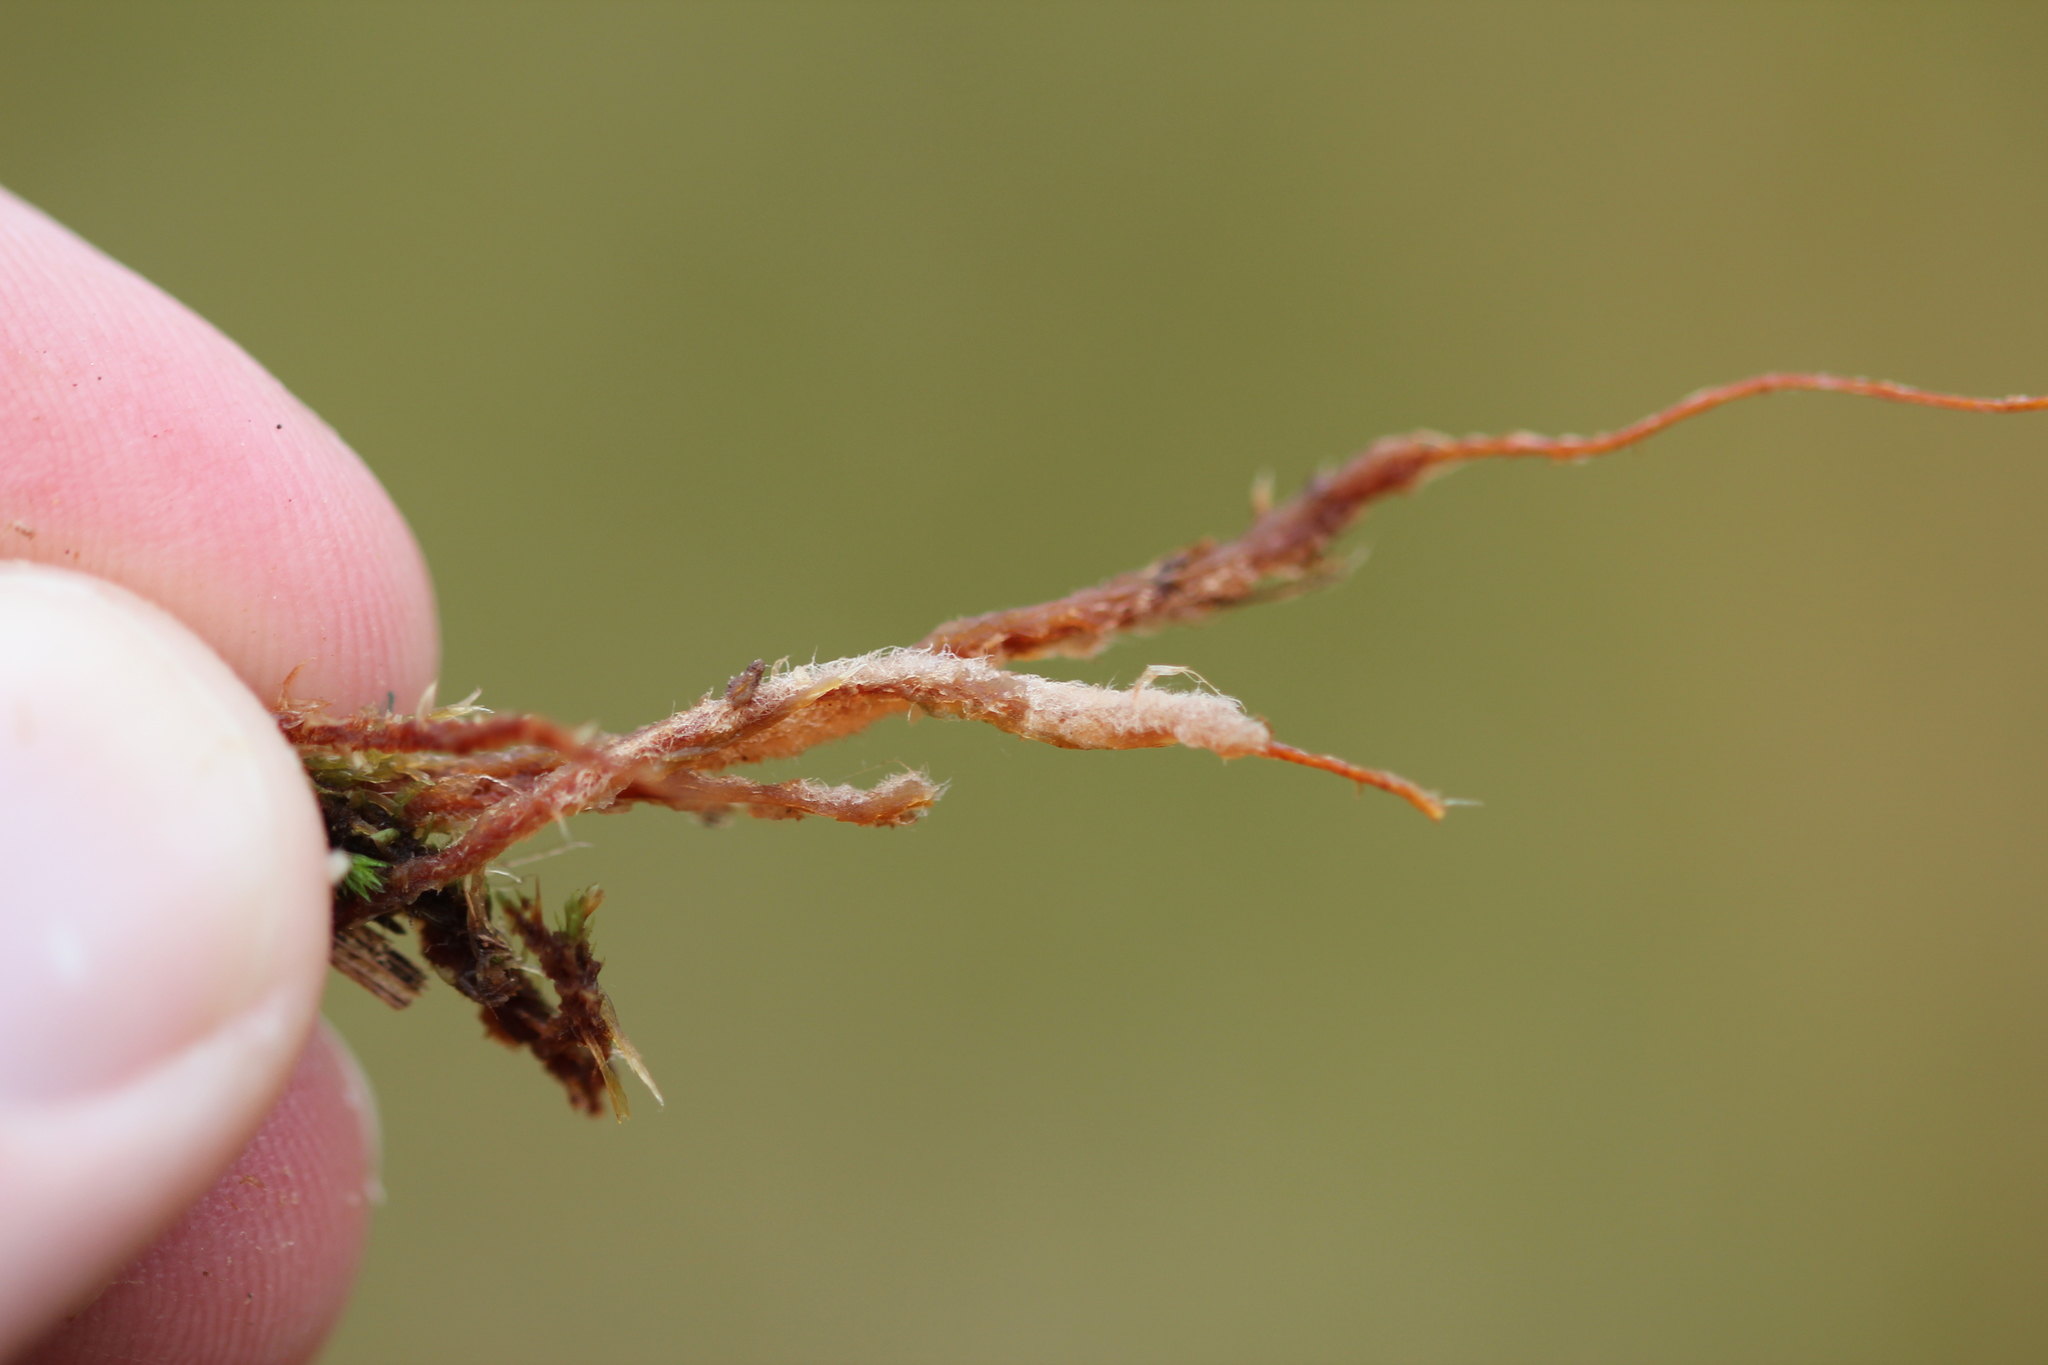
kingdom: Plantae
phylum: Bryophyta
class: Polytrichopsida
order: Polytrichales
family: Polytrichaceae
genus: Polytrichum
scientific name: Polytrichum strictum
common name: Bog haircap moss
